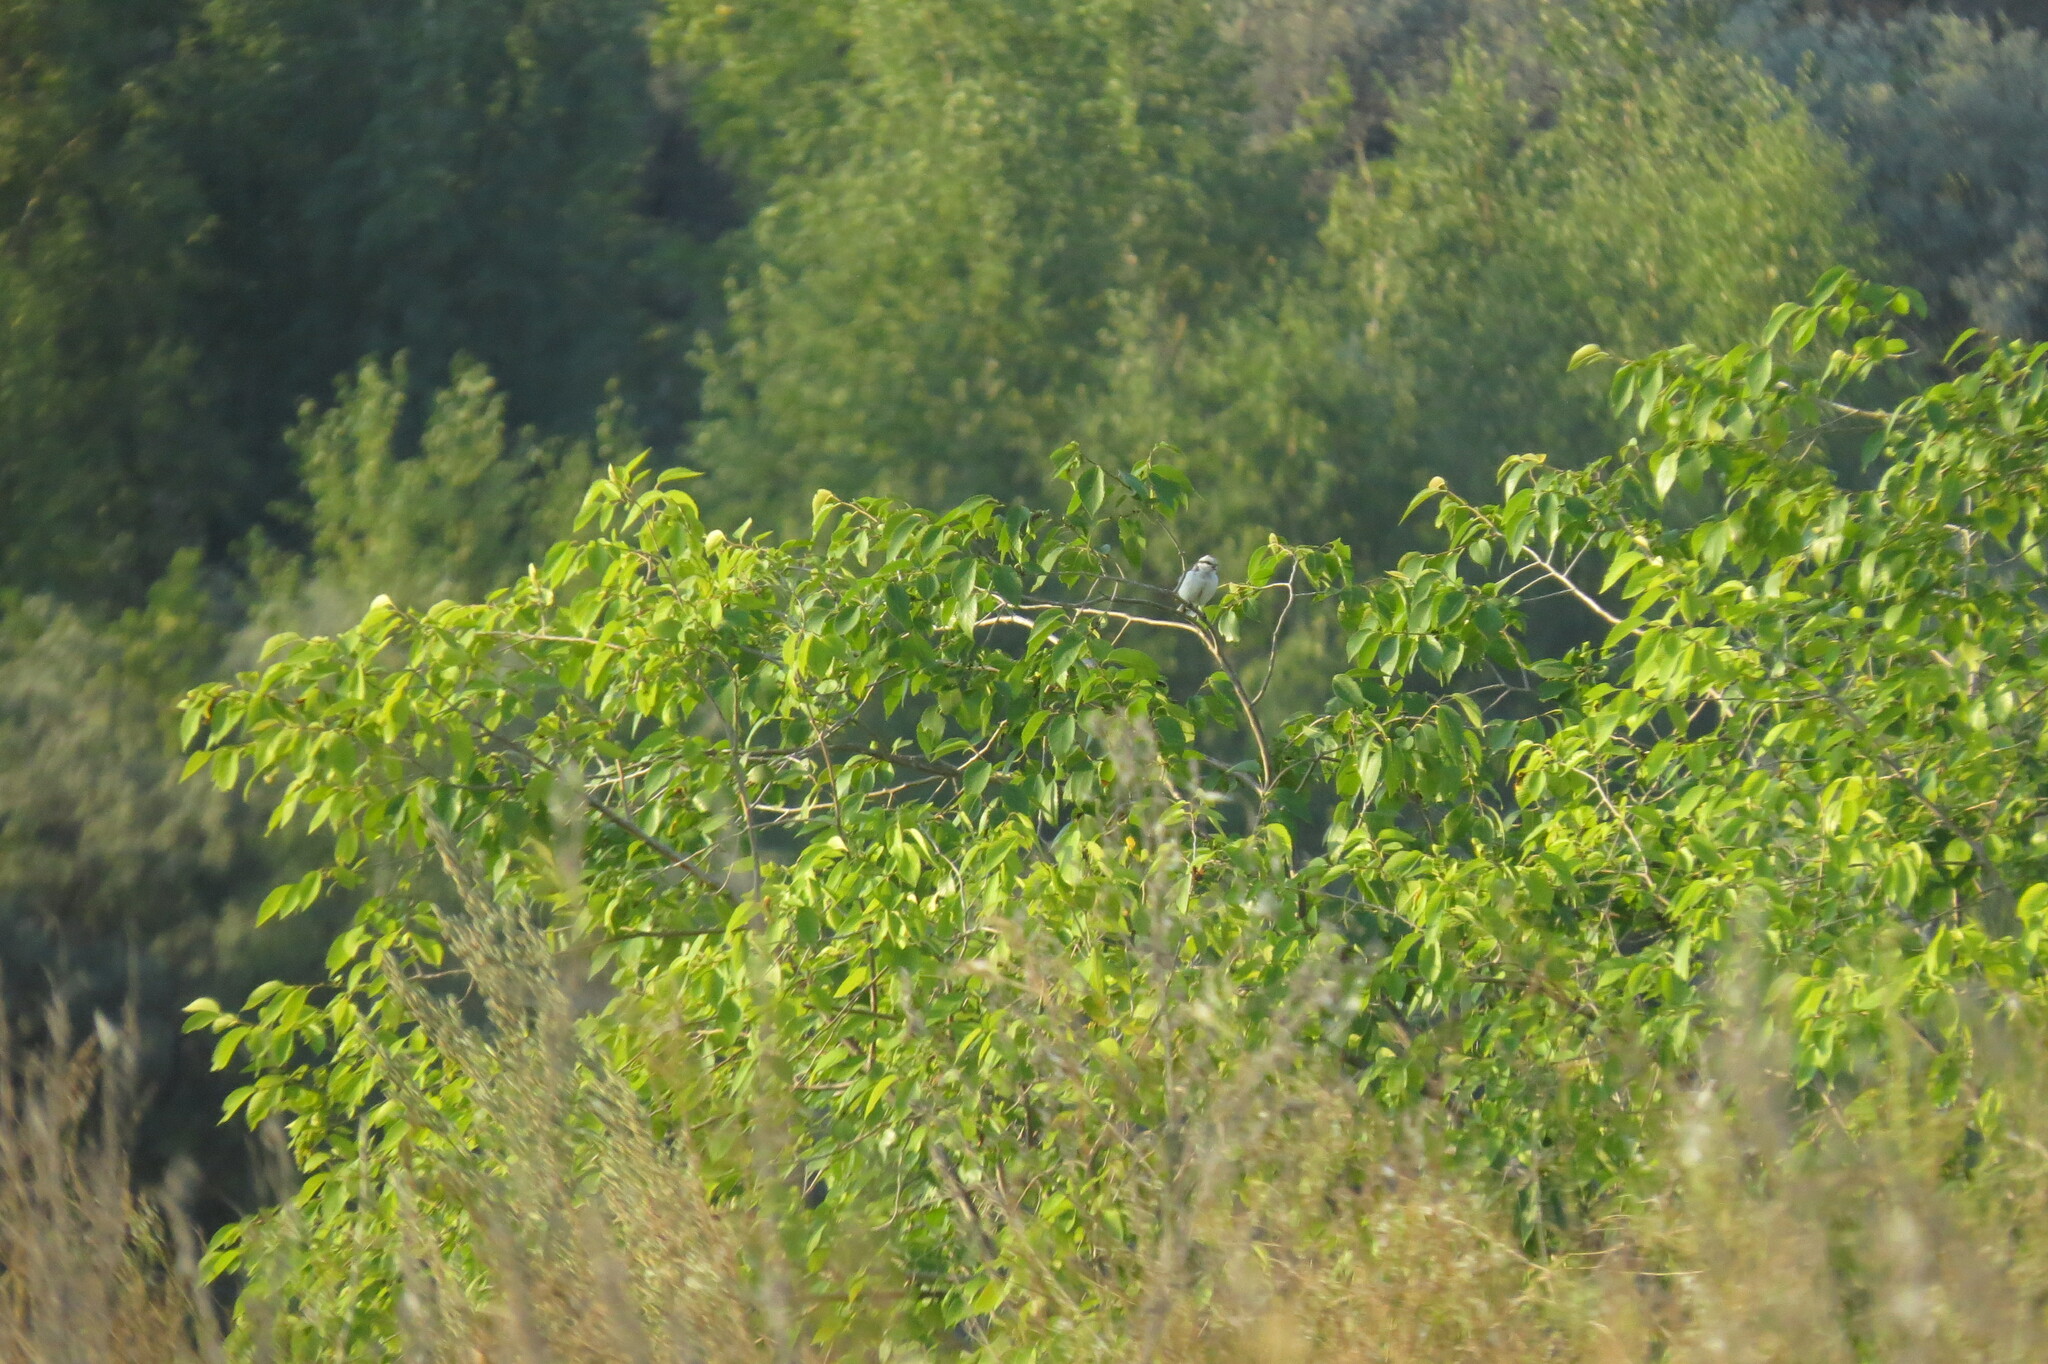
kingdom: Animalia
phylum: Chordata
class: Aves
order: Passeriformes
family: Paridae
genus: Cyanistes
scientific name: Cyanistes cyanus
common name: Azure tit
